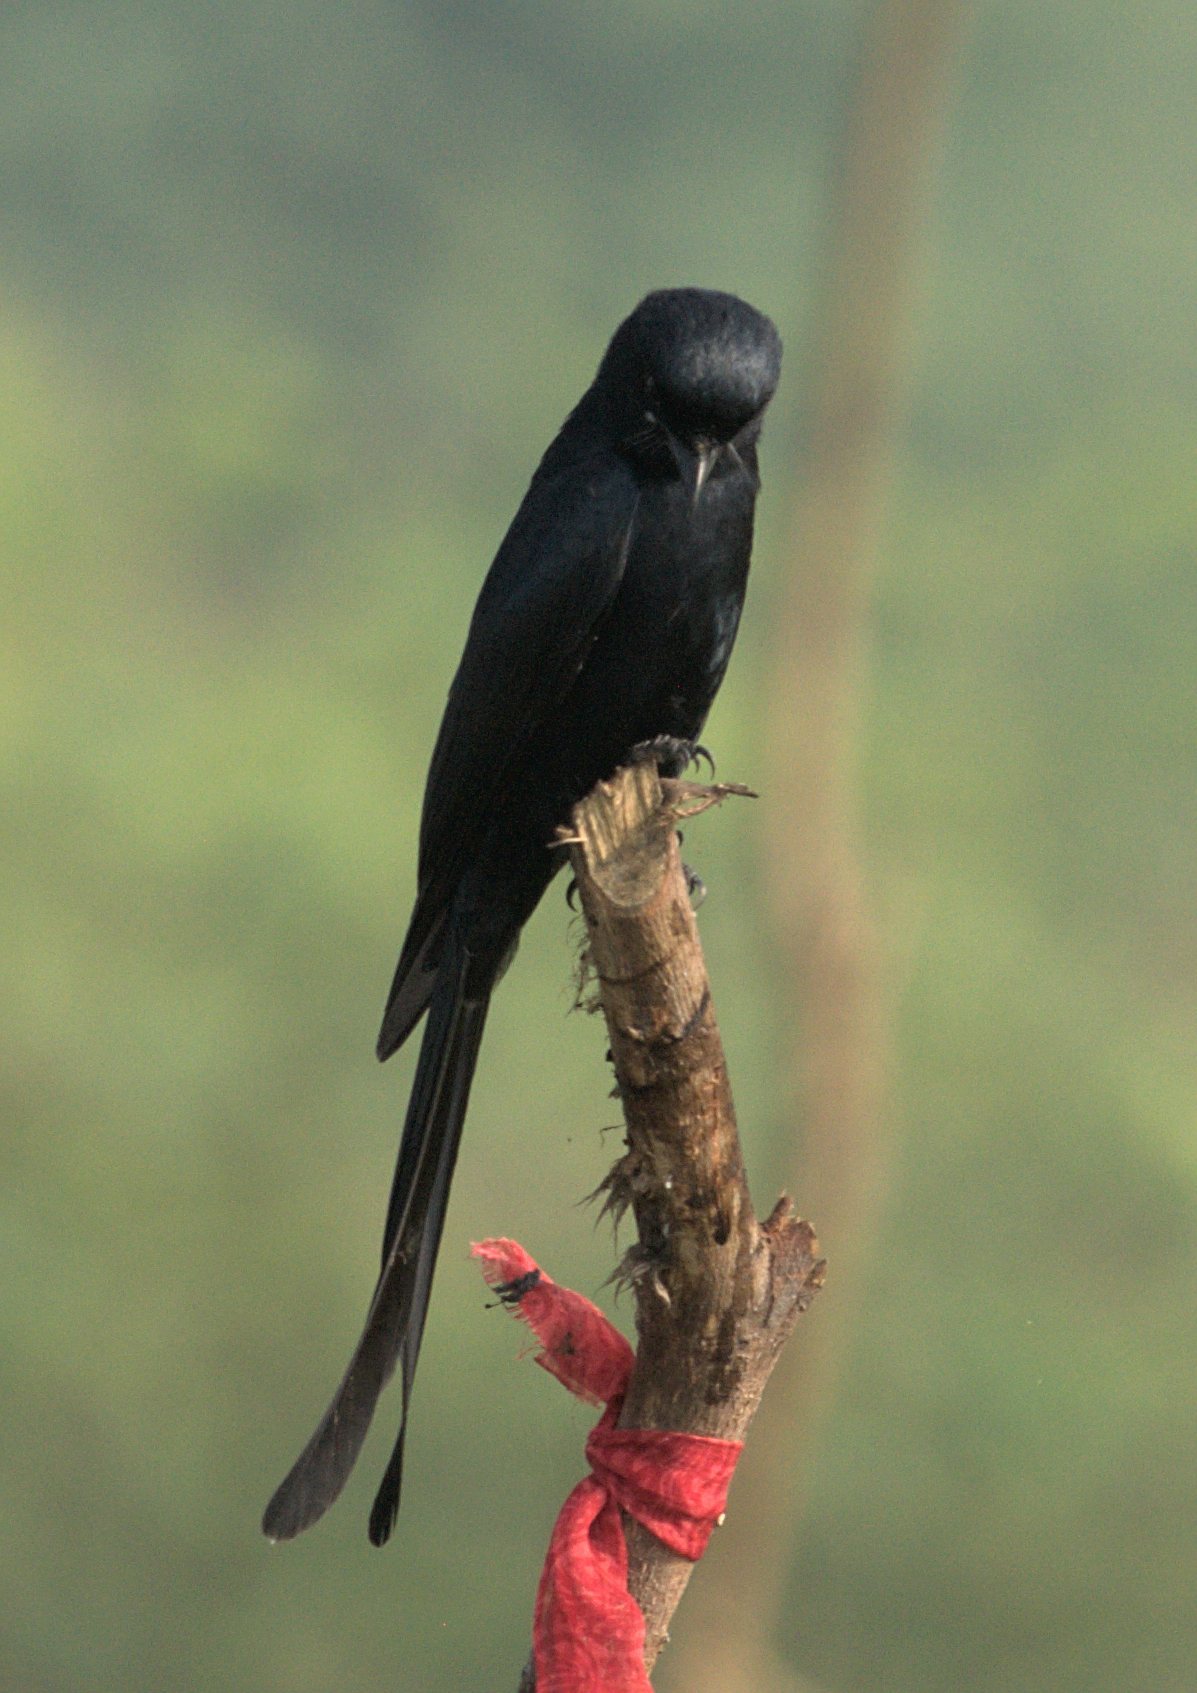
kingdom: Animalia
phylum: Chordata
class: Aves
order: Passeriformes
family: Dicruridae
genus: Dicrurus
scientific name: Dicrurus macrocercus
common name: Black drongo
